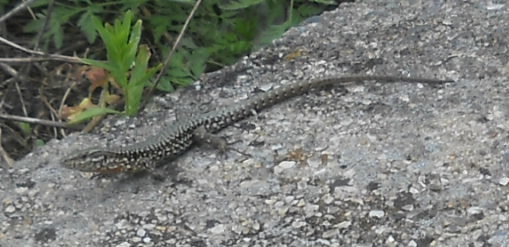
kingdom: Animalia
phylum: Chordata
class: Squamata
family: Lacertidae
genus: Podarcis
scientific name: Podarcis muralis
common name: Common wall lizard
